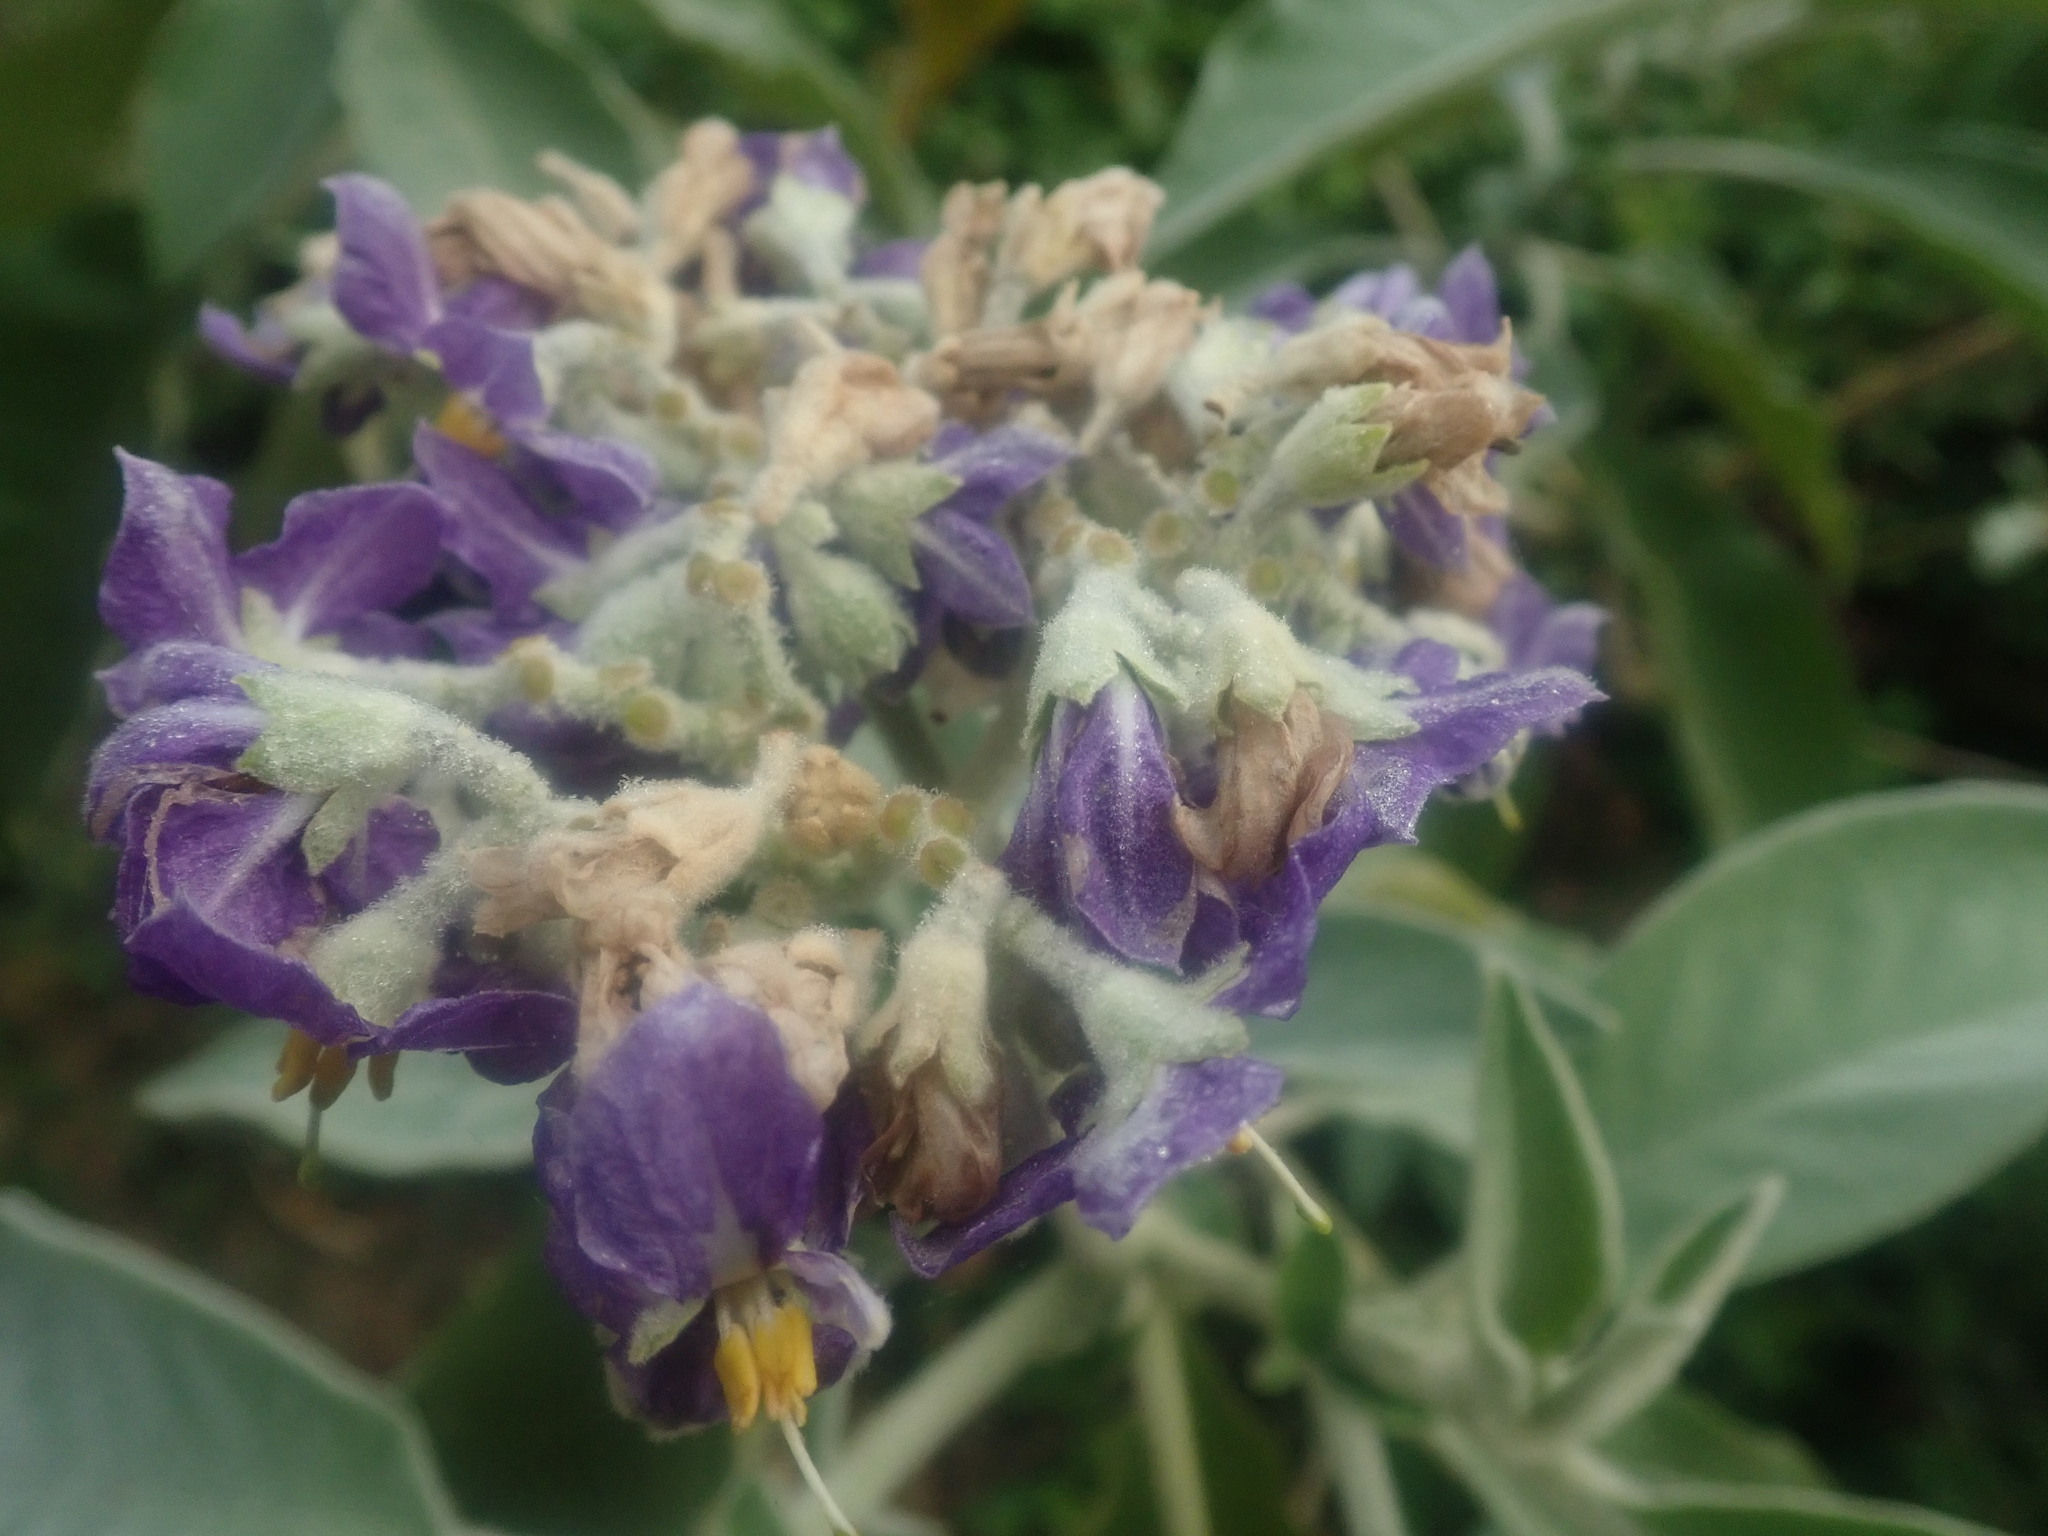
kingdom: Plantae
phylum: Tracheophyta
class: Magnoliopsida
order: Solanales
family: Solanaceae
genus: Solanum
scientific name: Solanum mauritianum
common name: Earleaf nightshade
